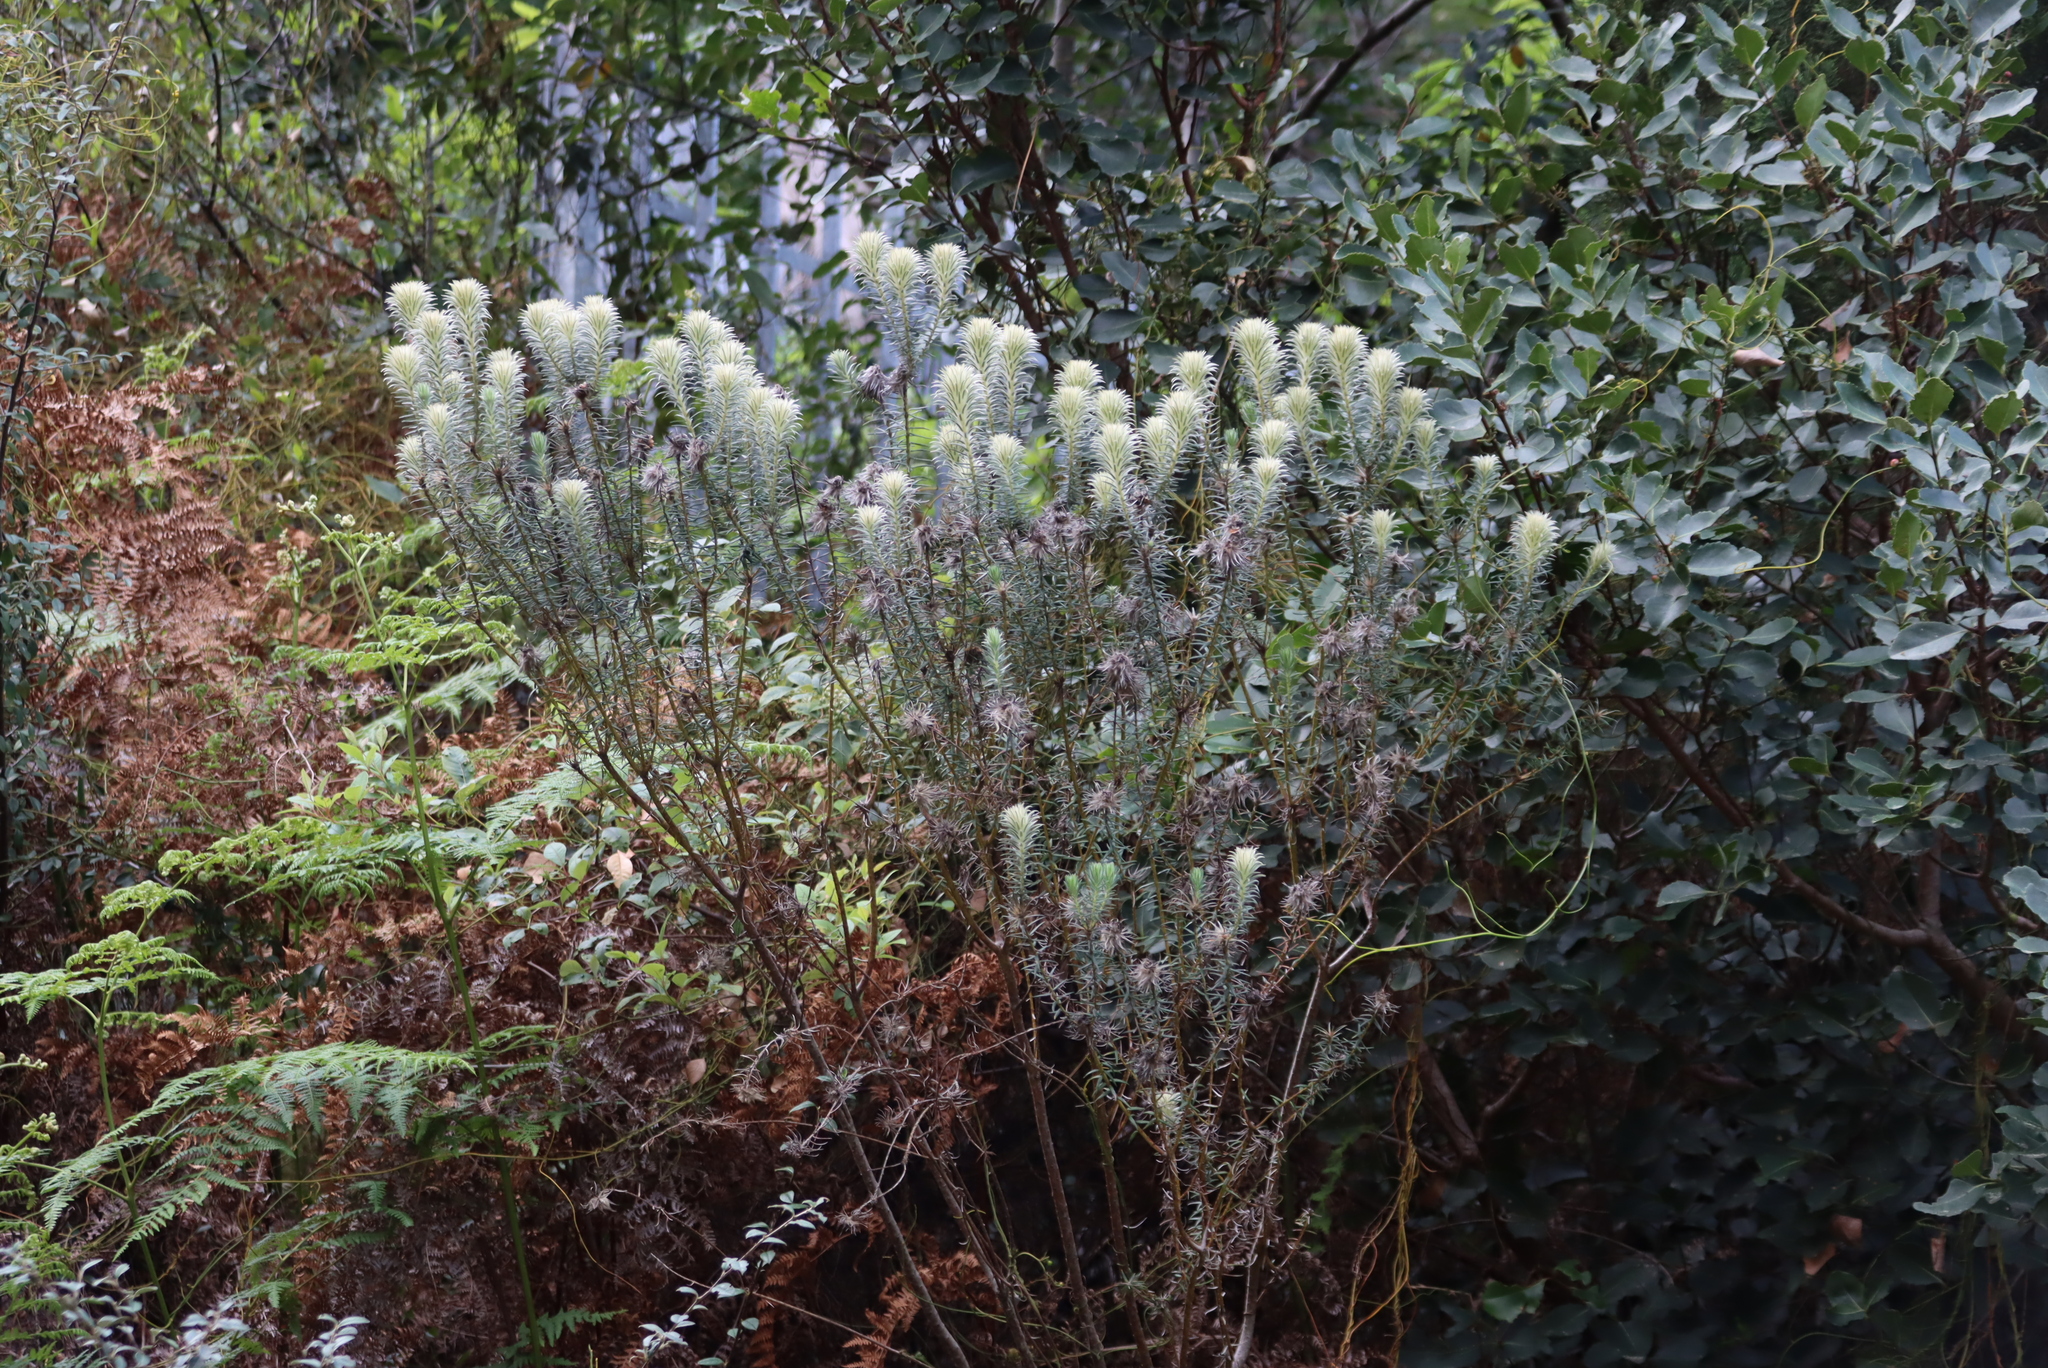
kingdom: Plantae
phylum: Tracheophyta
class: Magnoliopsida
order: Rosales
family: Rhamnaceae
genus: Phylica
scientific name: Phylica pubescens
